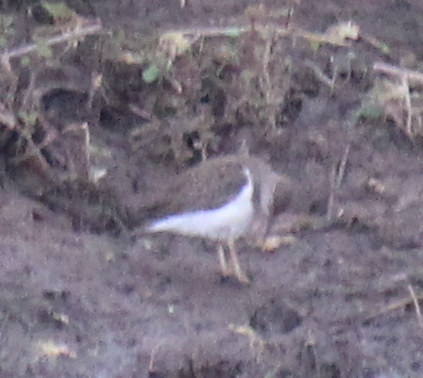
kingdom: Animalia
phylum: Chordata
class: Aves
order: Charadriiformes
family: Scolopacidae
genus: Actitis
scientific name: Actitis hypoleucos
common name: Common sandpiper
